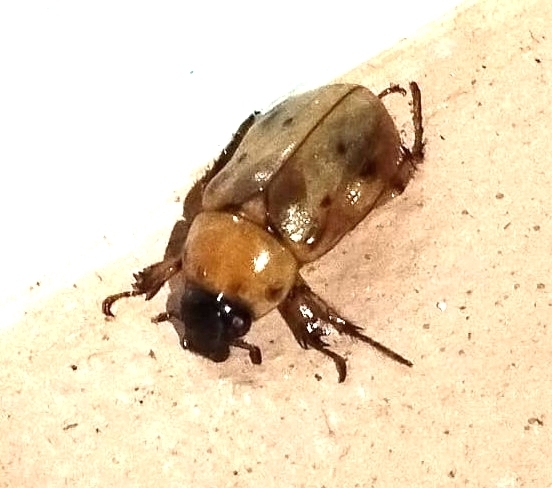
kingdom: Animalia
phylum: Arthropoda
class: Insecta
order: Coleoptera
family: Scarabaeidae
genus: Cyclocephala
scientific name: Cyclocephala lunulata
